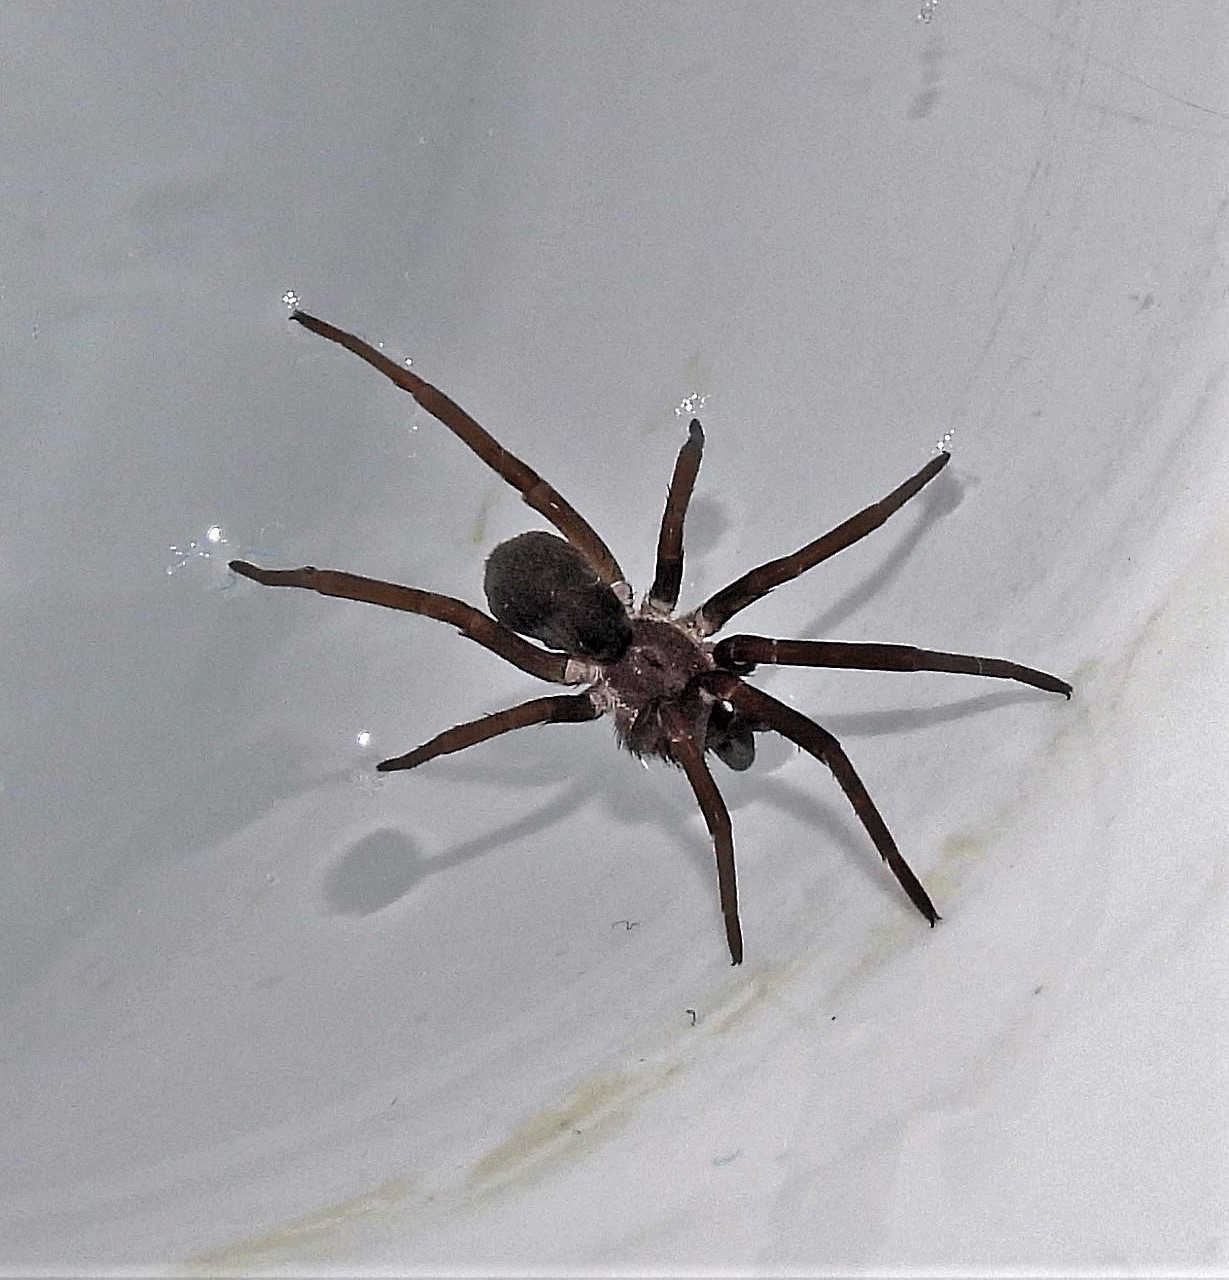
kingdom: Animalia
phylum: Arthropoda
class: Arachnida
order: Araneae
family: Filistatidae
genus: Kukulcania
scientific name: Kukulcania hibernalis
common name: Crevice weaver
